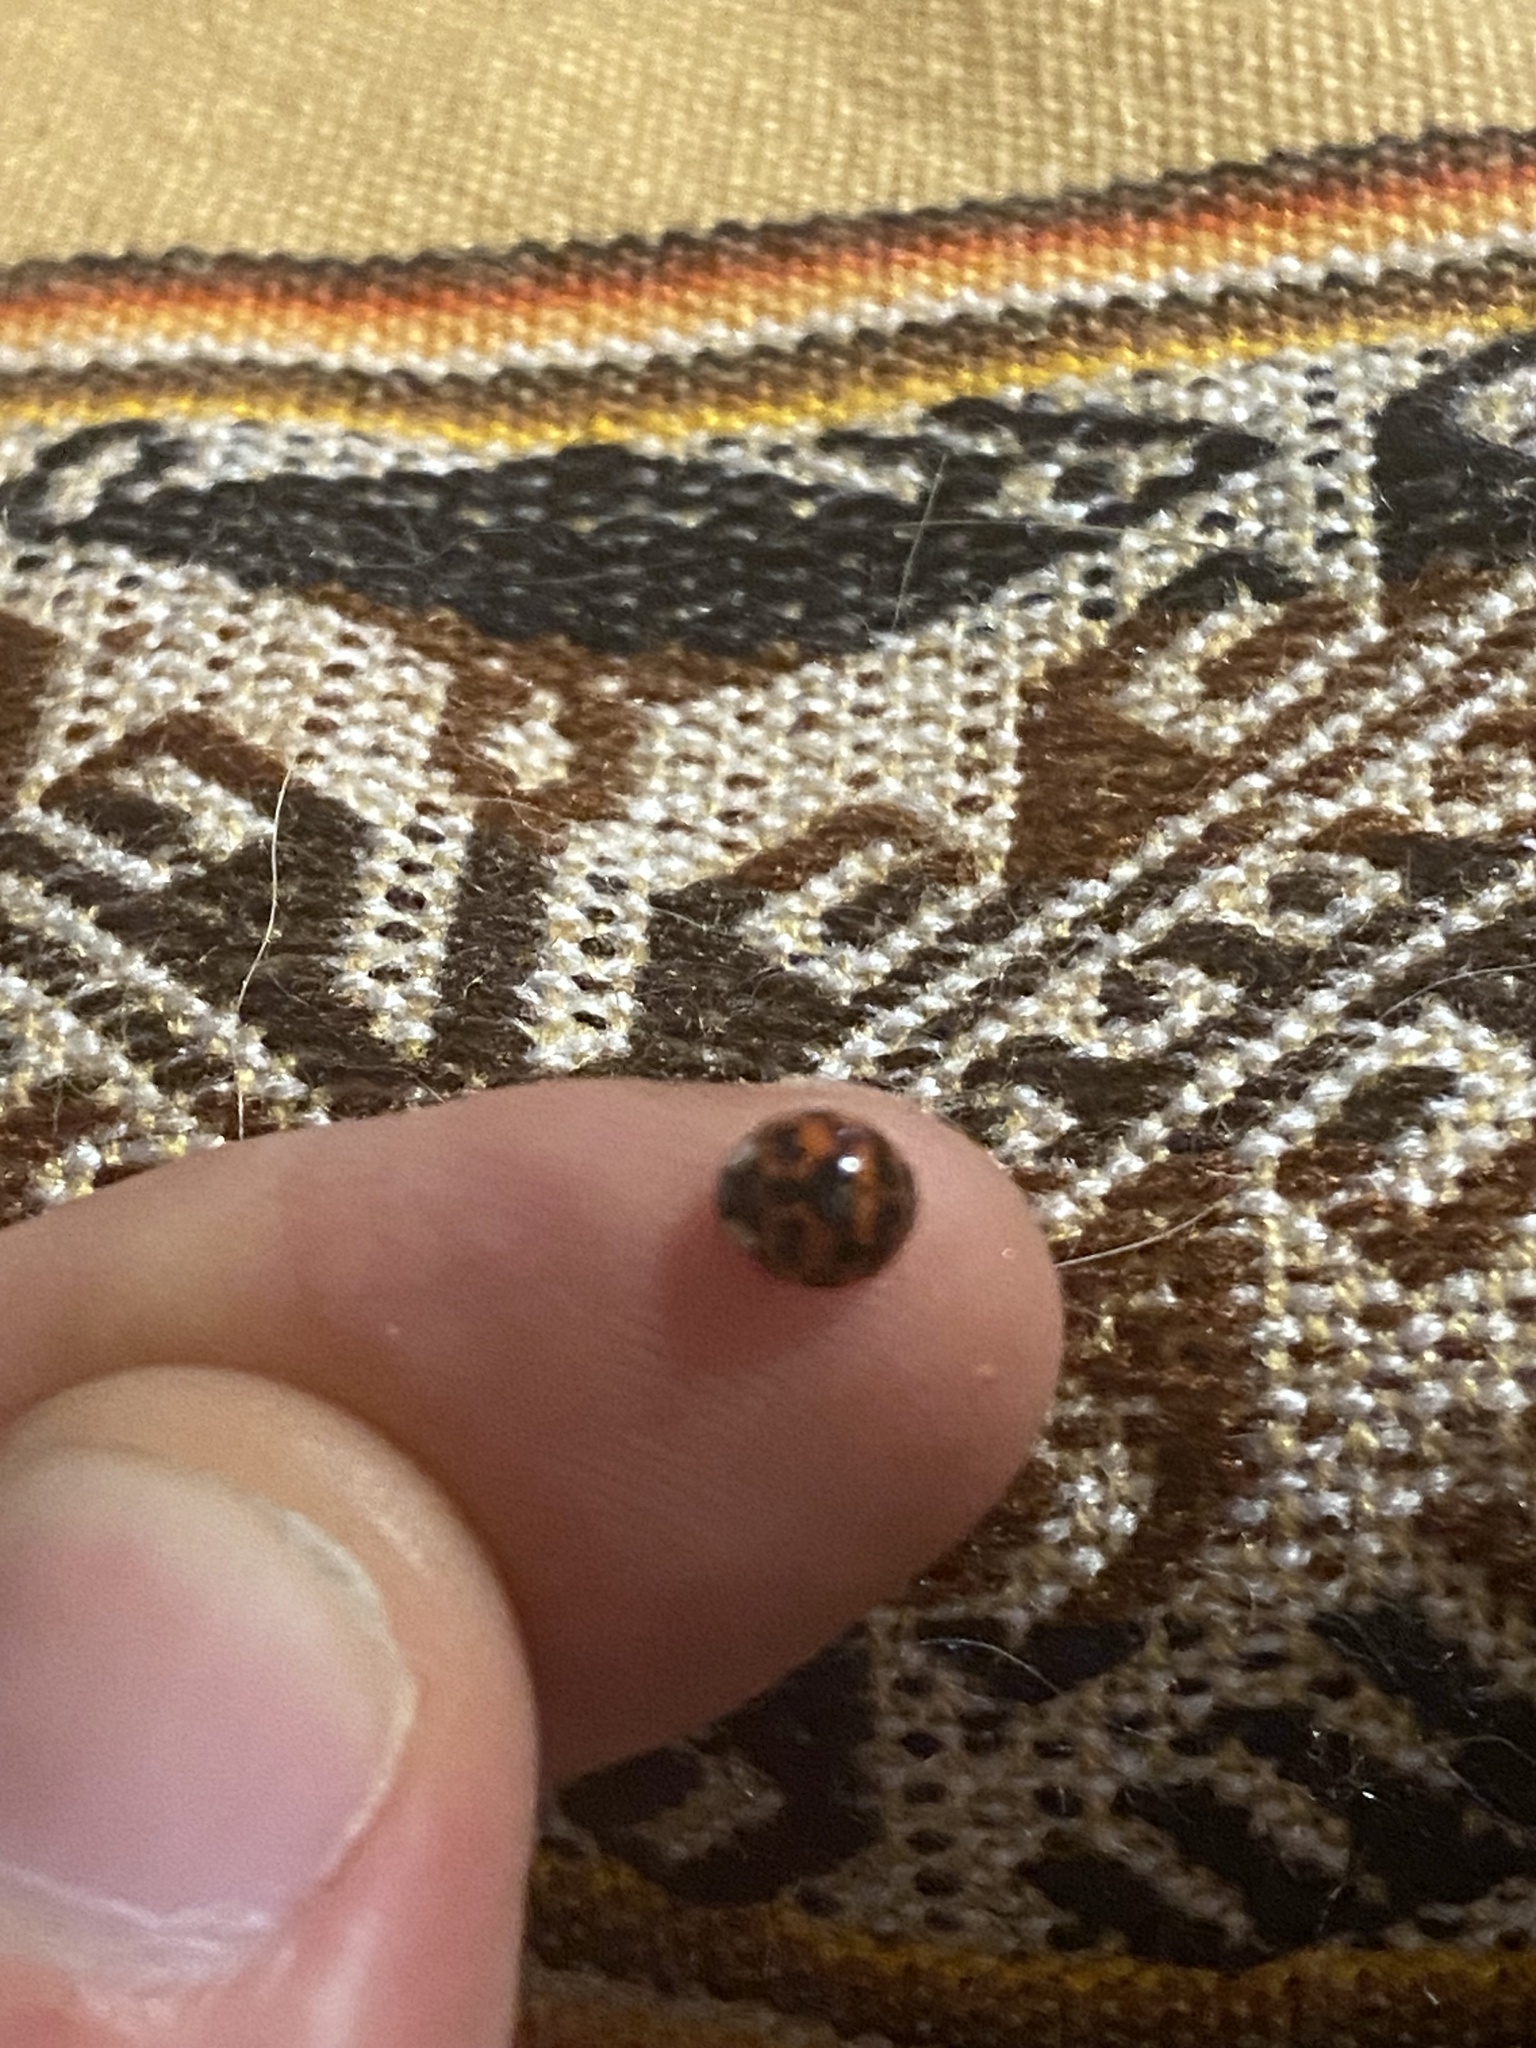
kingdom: Animalia
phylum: Arthropoda
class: Insecta
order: Coleoptera
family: Coccinellidae
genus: Harmonia
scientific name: Harmonia axyridis
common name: Harlequin ladybird
